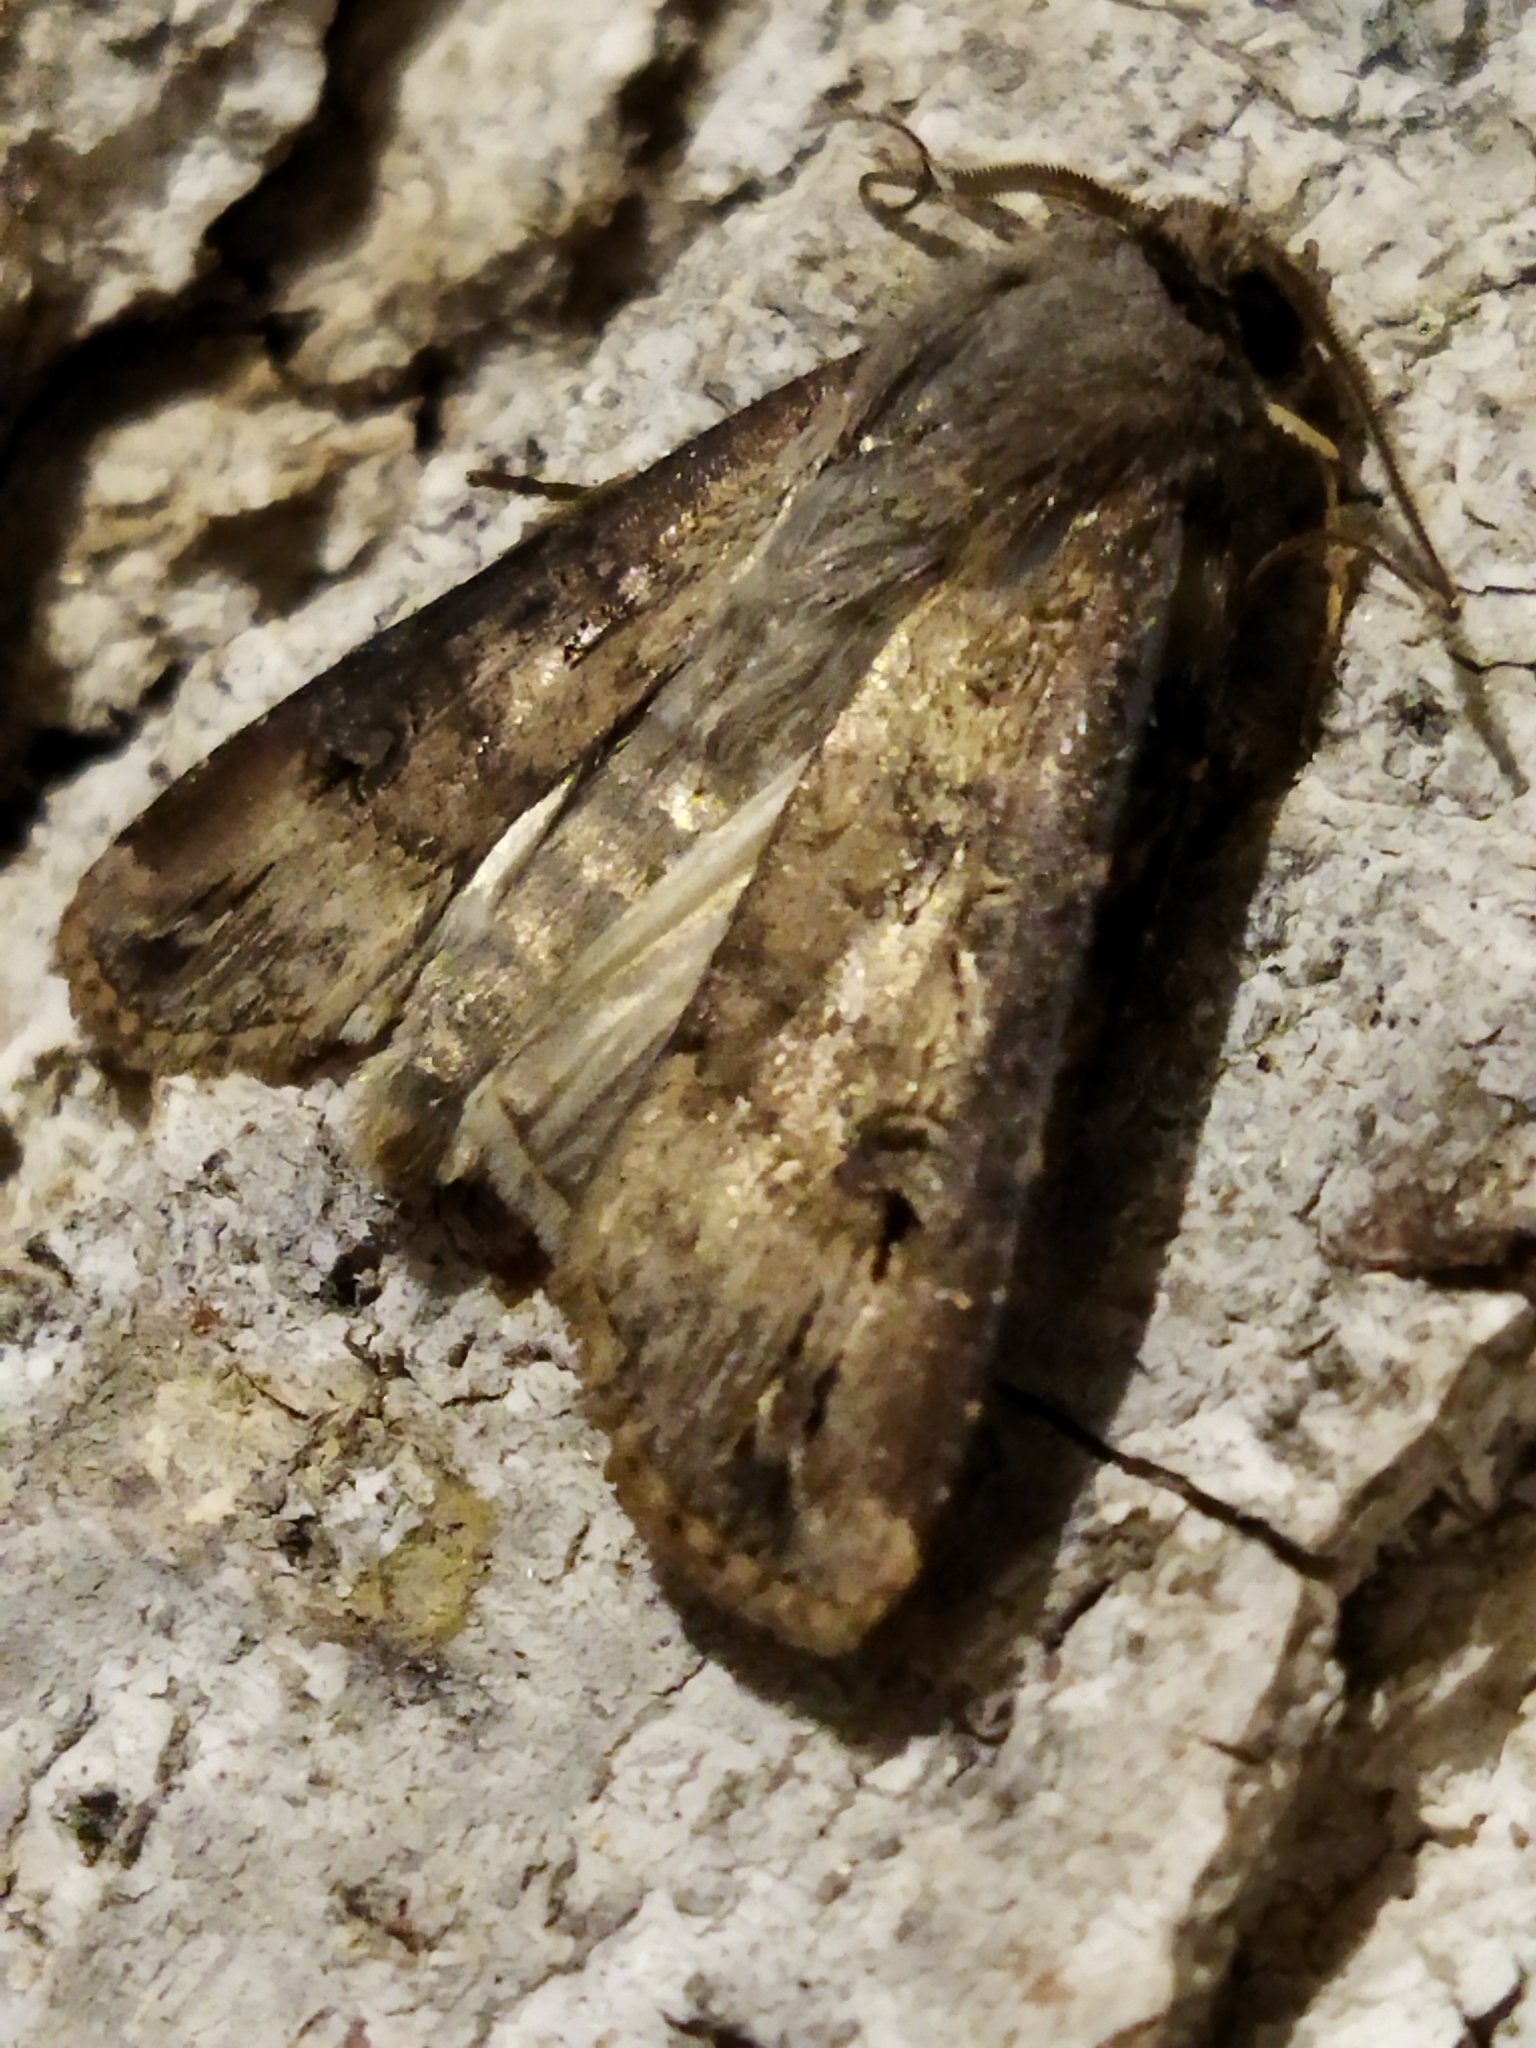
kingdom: Animalia
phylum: Arthropoda
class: Insecta
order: Lepidoptera
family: Noctuidae
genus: Agrotis
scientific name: Agrotis ipsilon
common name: Dark sword-grass
